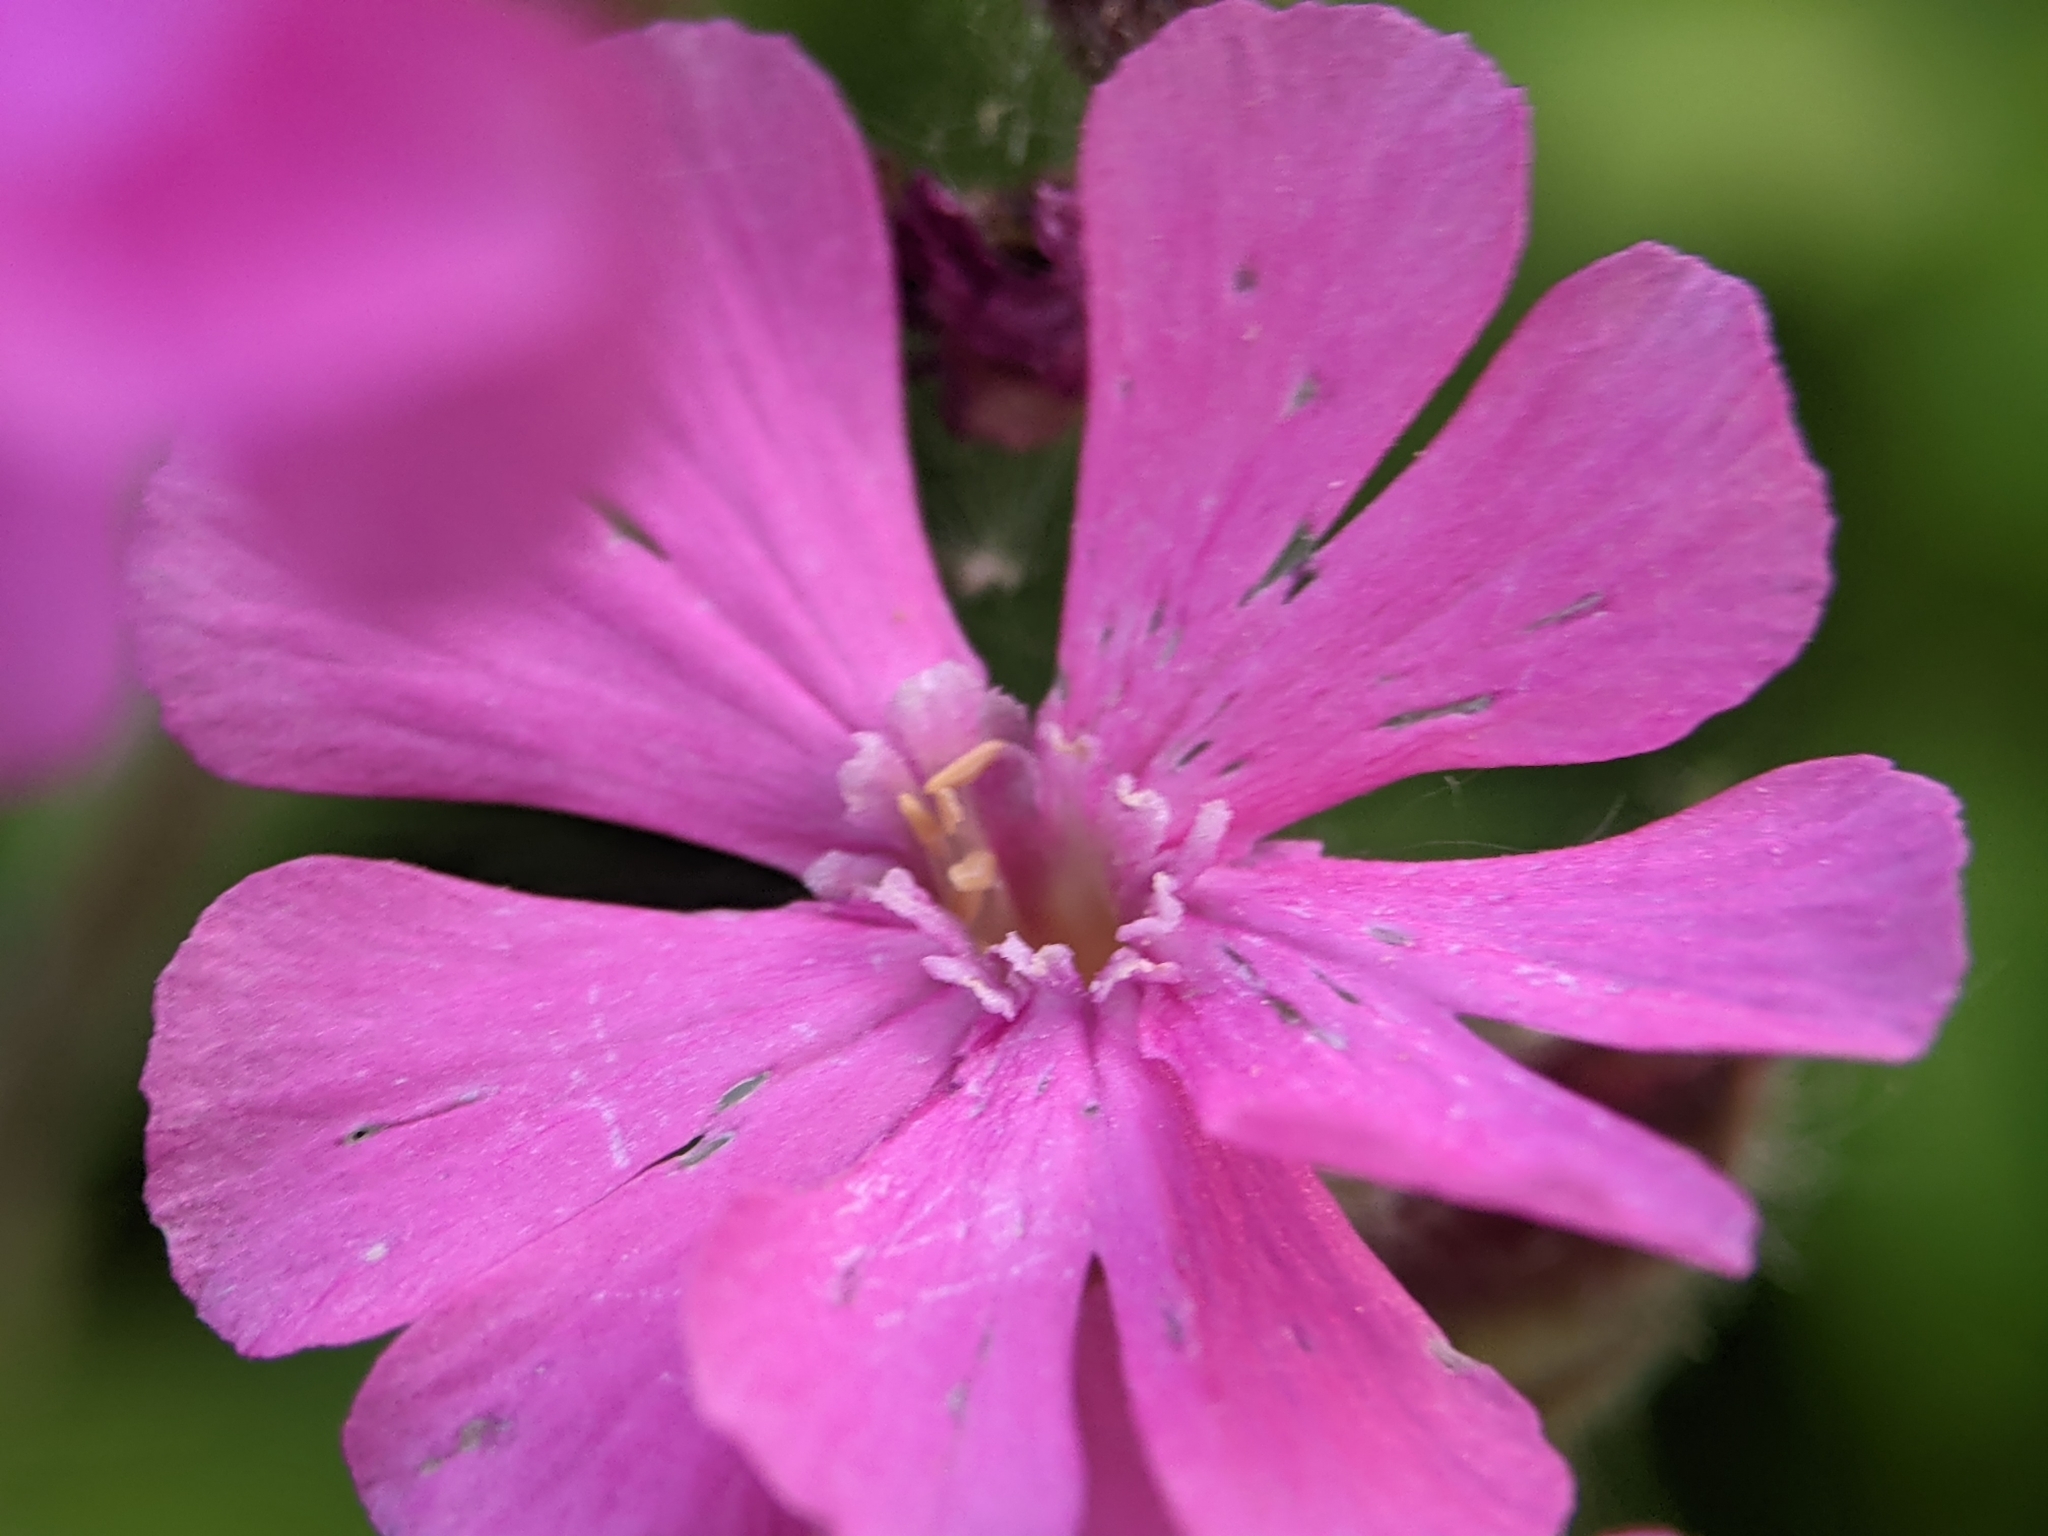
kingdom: Plantae
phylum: Tracheophyta
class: Magnoliopsida
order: Caryophyllales
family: Caryophyllaceae
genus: Silene
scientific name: Silene dioica
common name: Red campion
